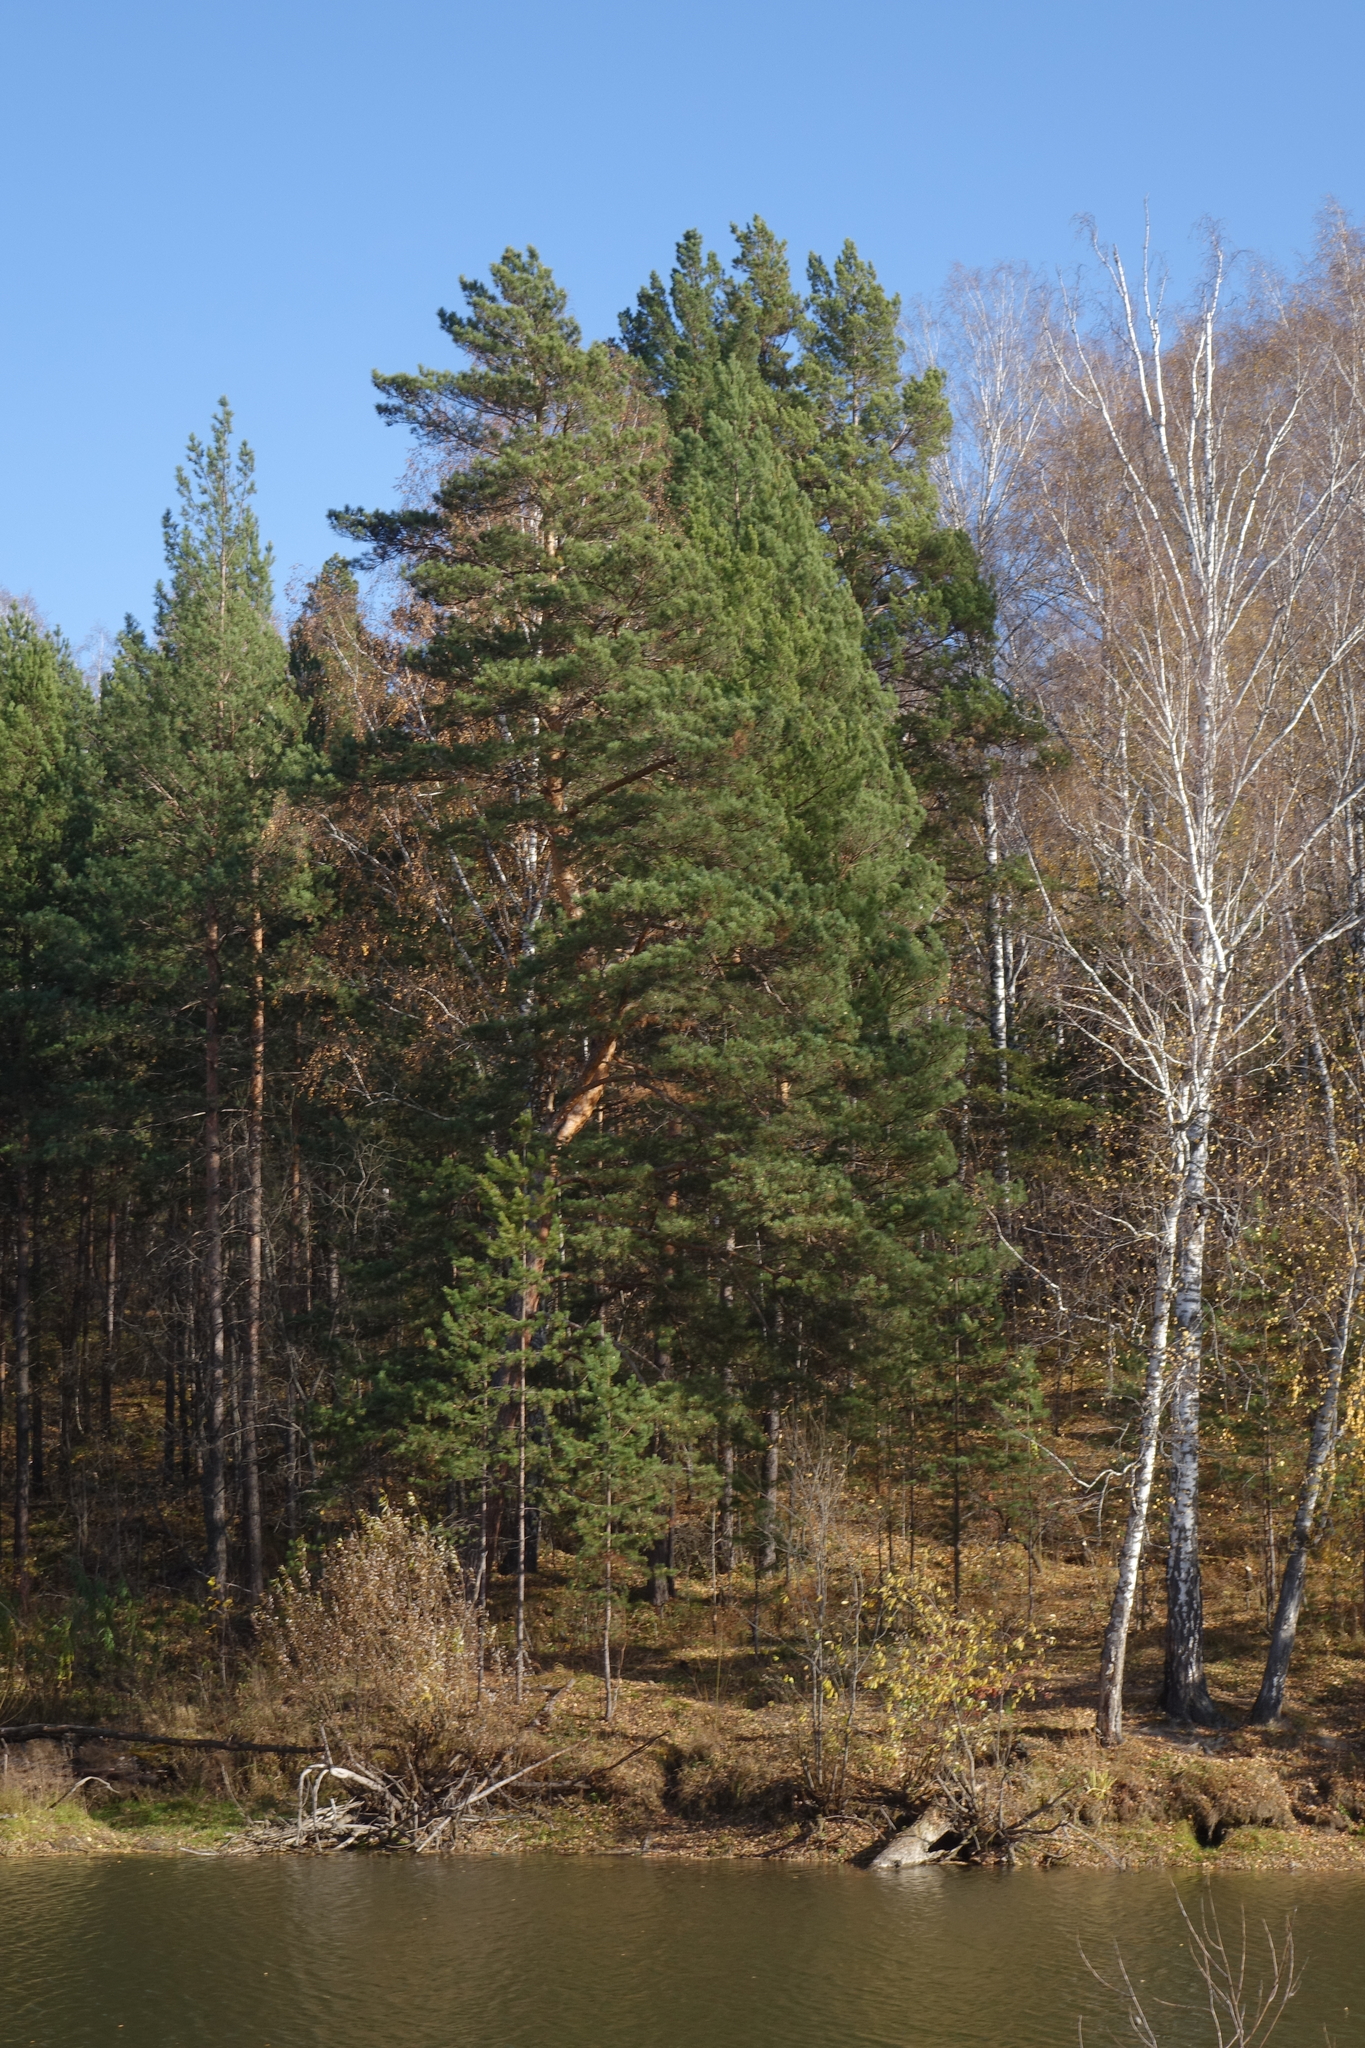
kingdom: Plantae
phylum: Tracheophyta
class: Pinopsida
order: Pinales
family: Pinaceae
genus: Pinus
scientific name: Pinus sylvestris
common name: Scots pine
